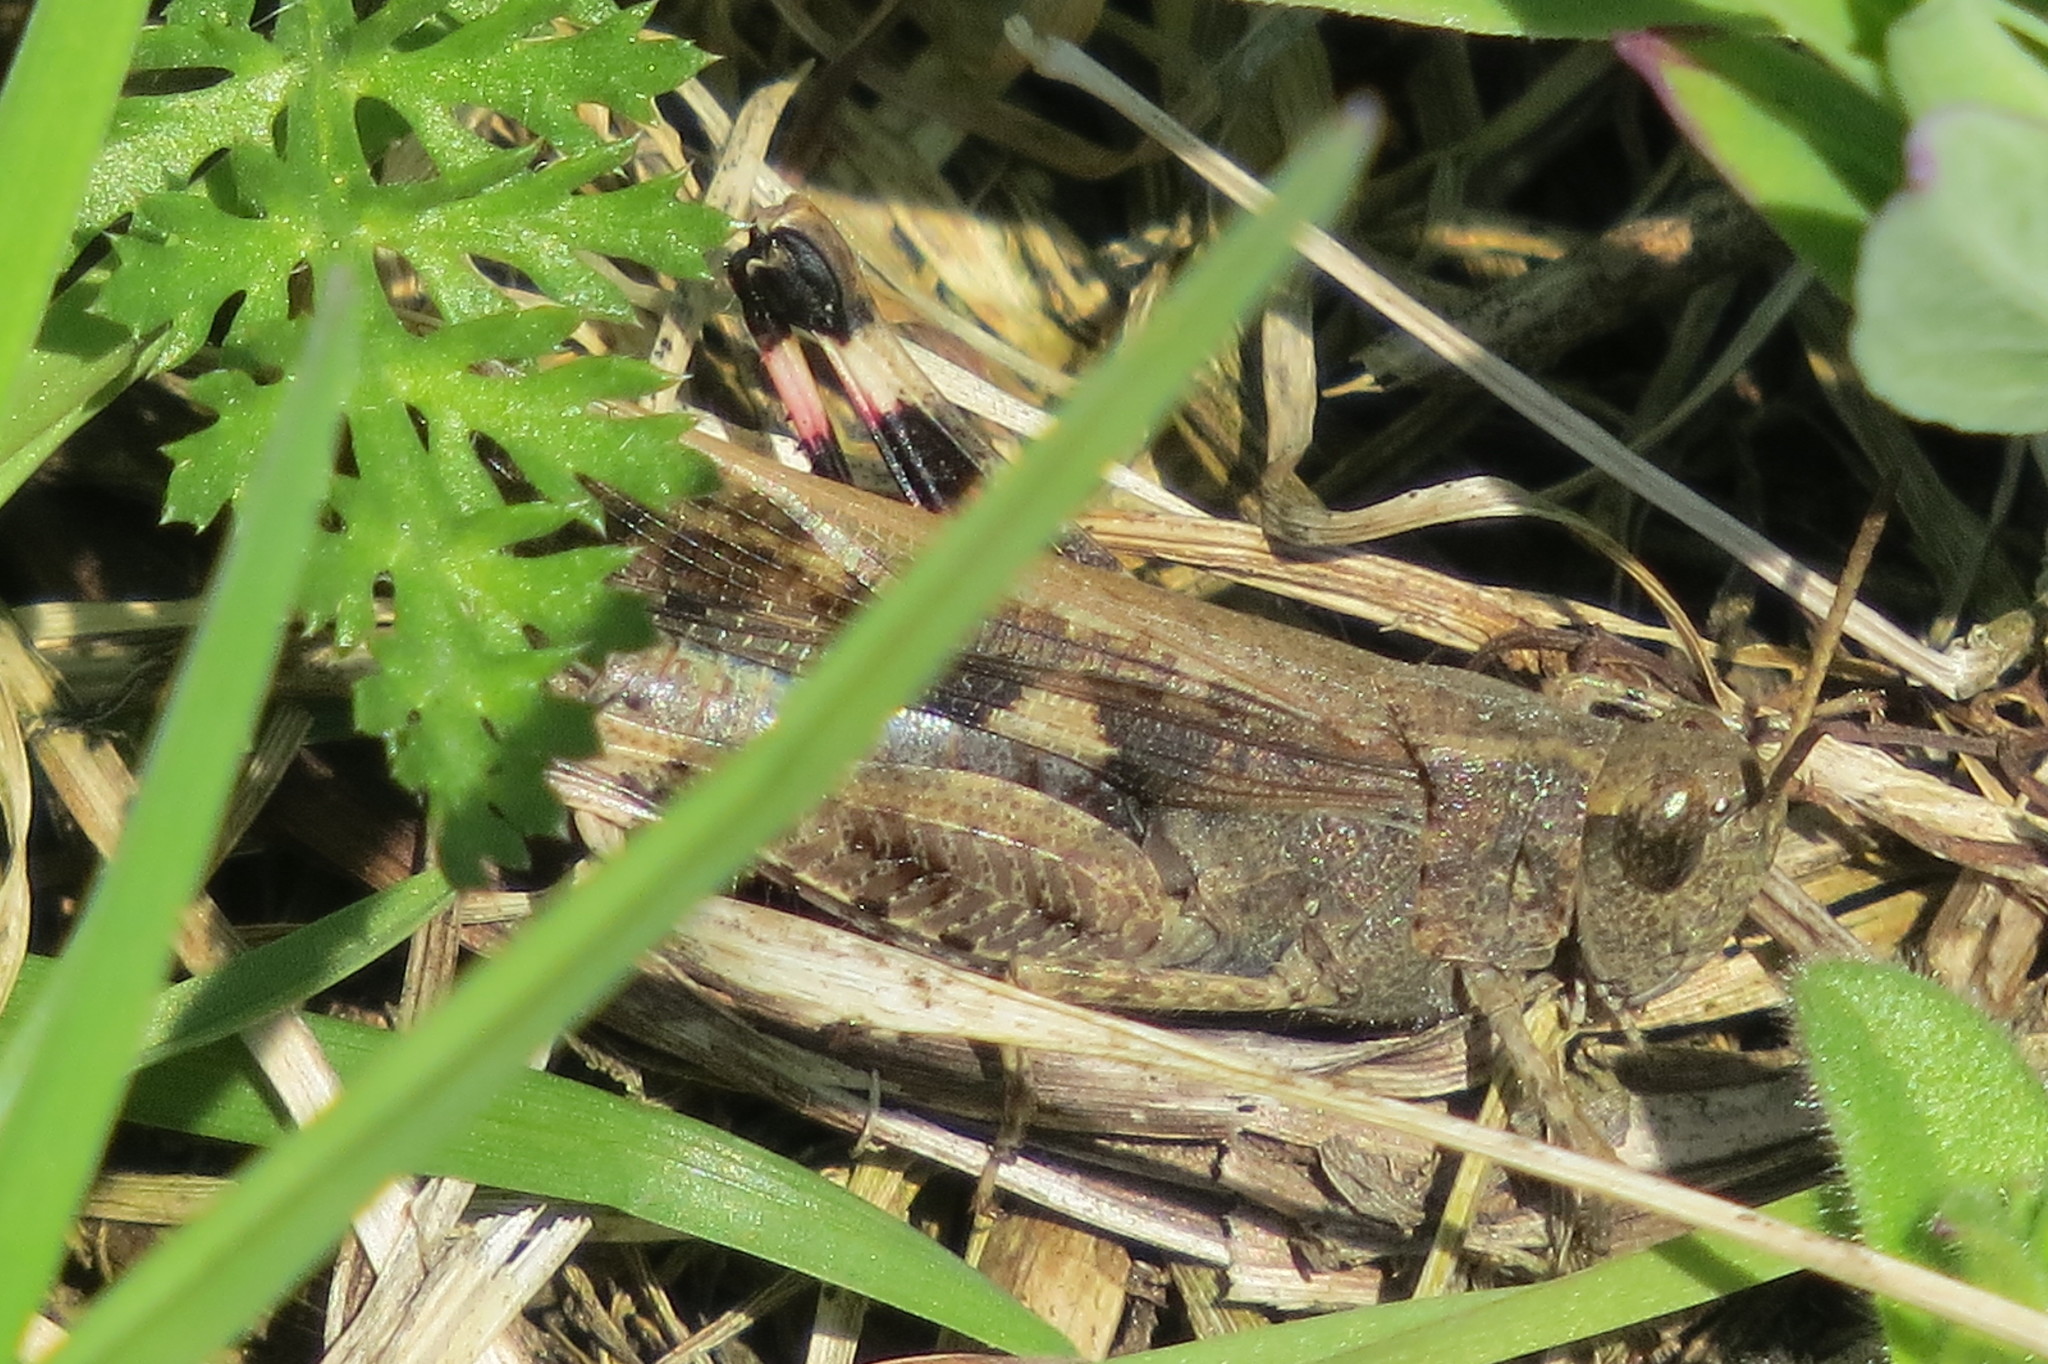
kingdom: Animalia
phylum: Arthropoda
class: Insecta
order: Orthoptera
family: Acrididae
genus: Aiolopus
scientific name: Aiolopus strepens
